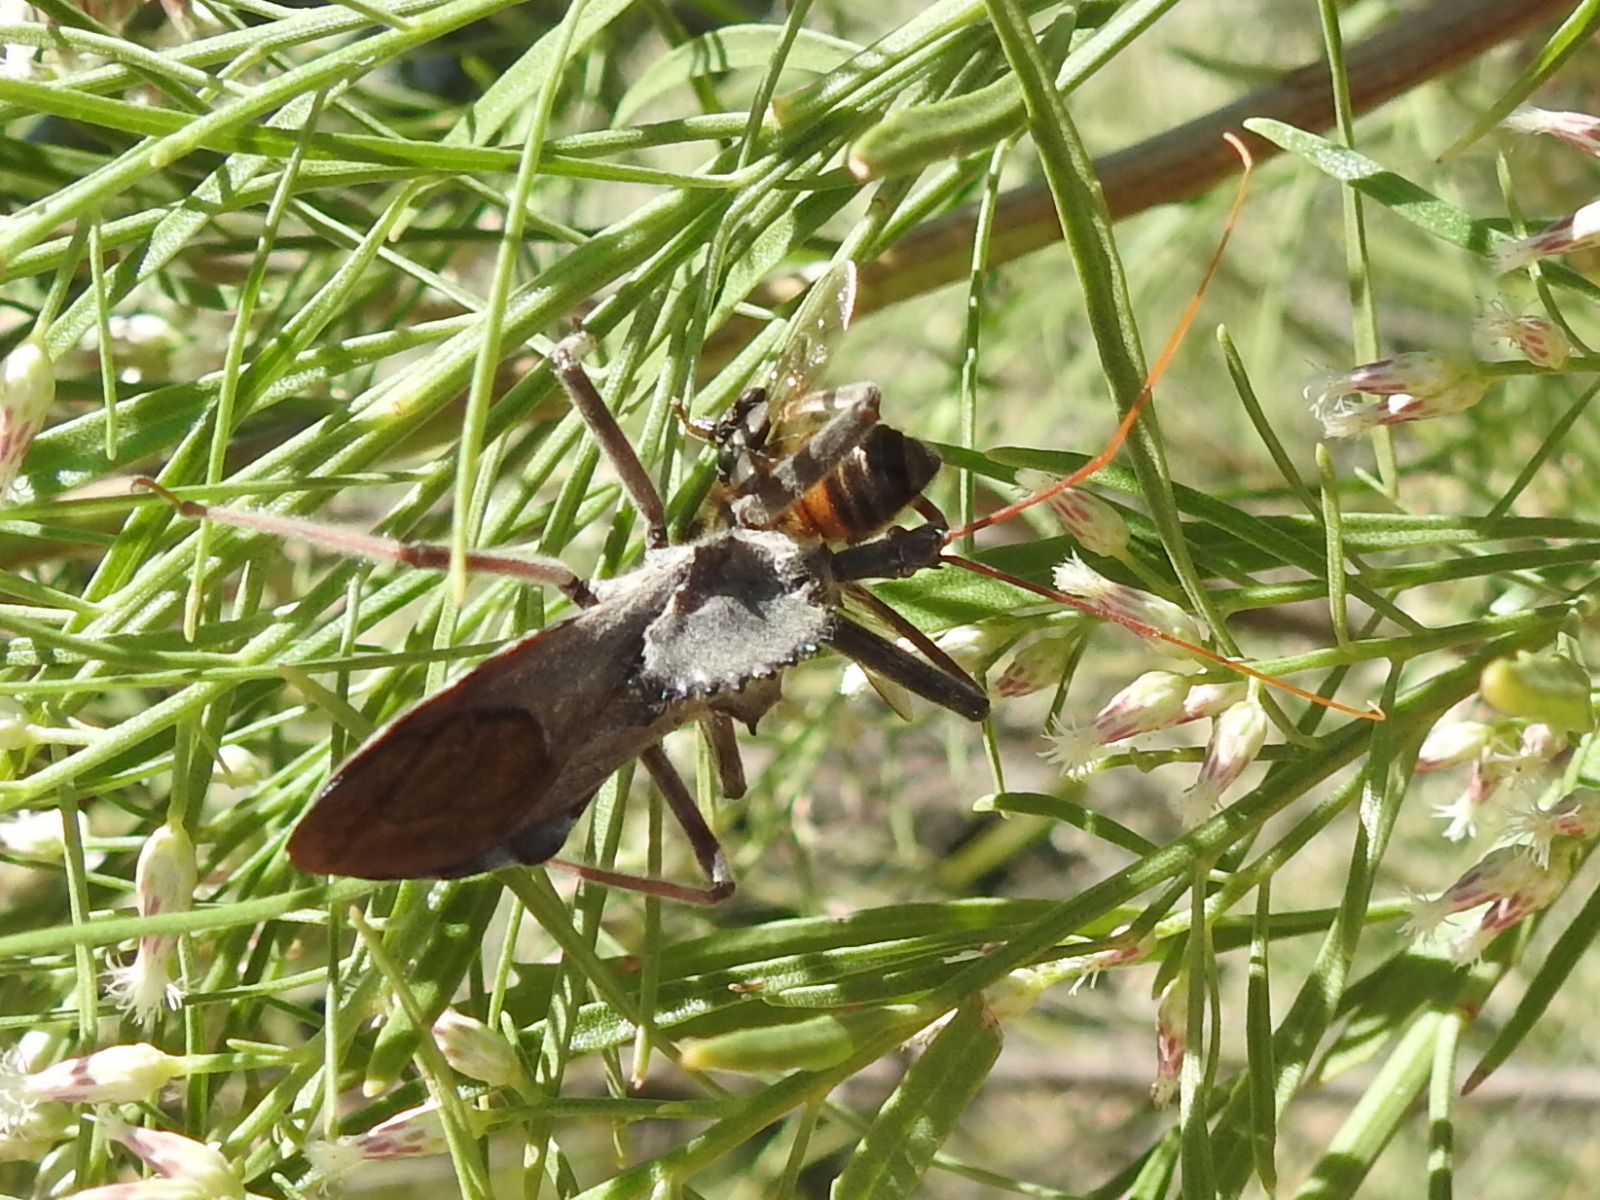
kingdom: Animalia
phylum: Arthropoda
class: Insecta
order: Hemiptera
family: Reduviidae
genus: Arilus
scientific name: Arilus cristatus
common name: North american wheel bug
